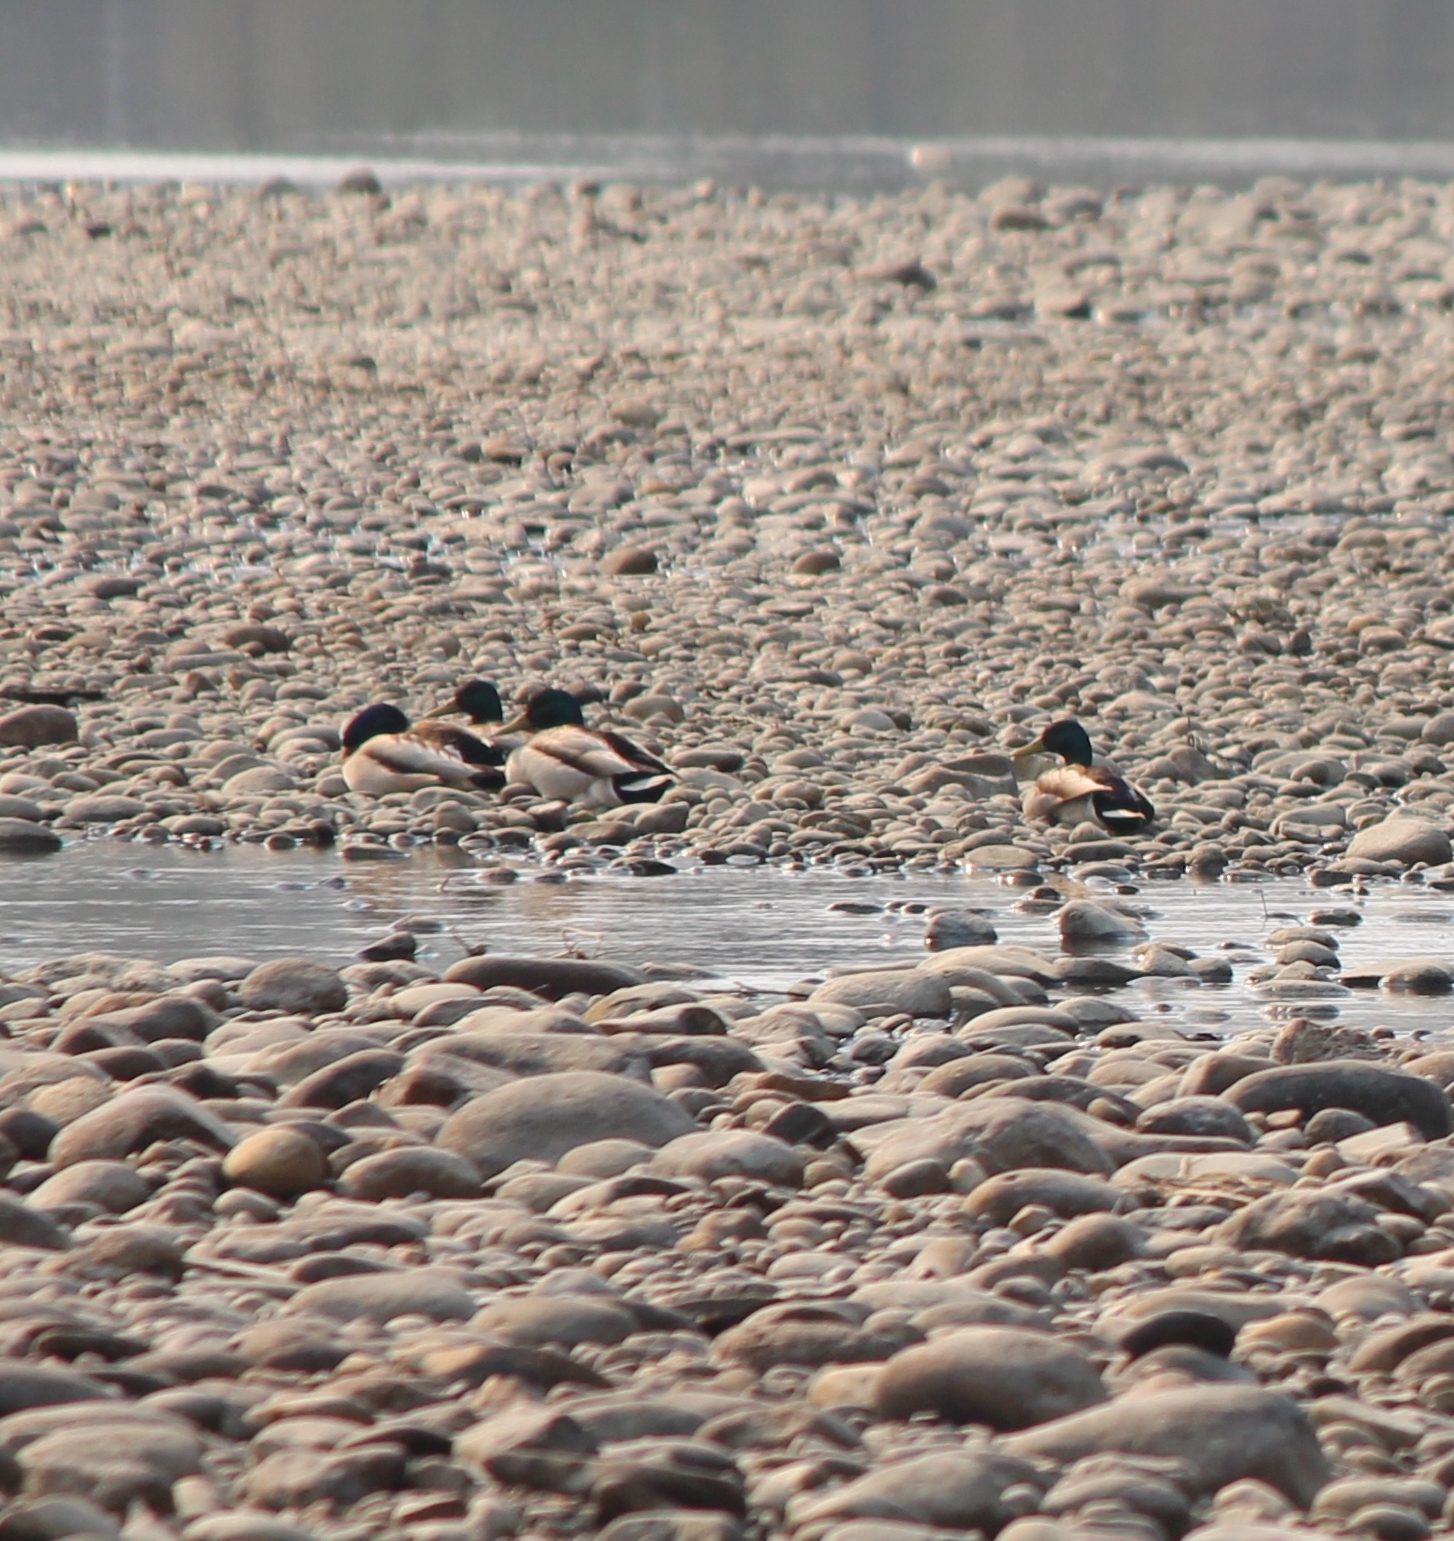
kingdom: Animalia
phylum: Chordata
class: Aves
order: Anseriformes
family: Anatidae
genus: Anas
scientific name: Anas platyrhynchos
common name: Mallard
